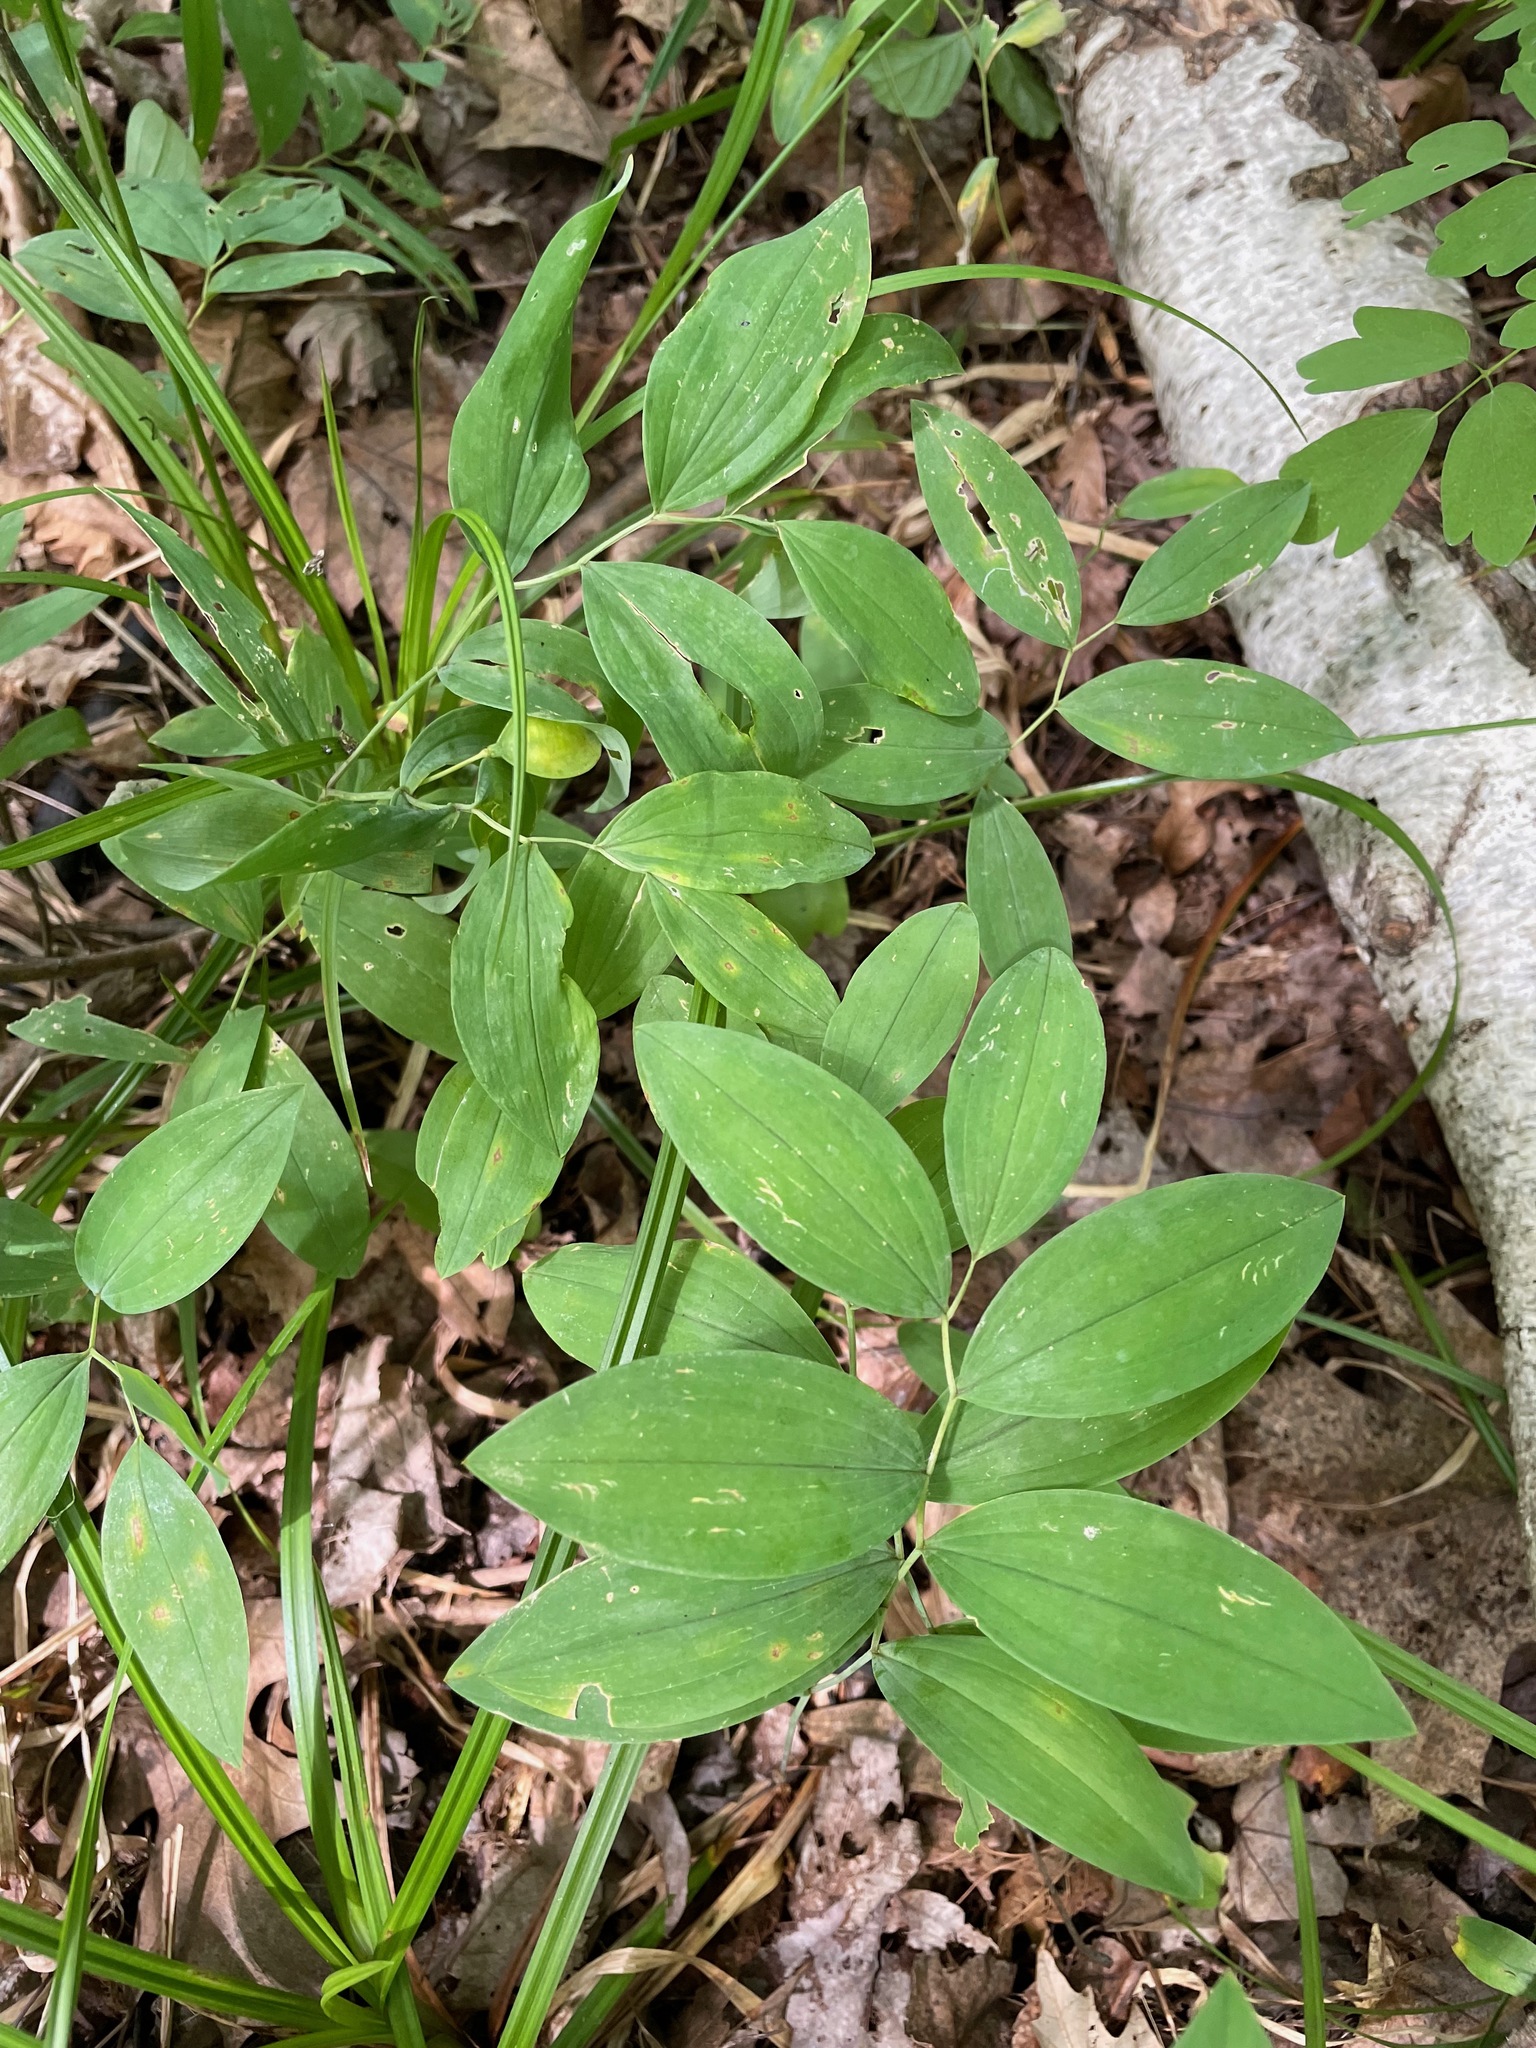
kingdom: Plantae
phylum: Tracheophyta
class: Liliopsida
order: Liliales
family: Colchicaceae
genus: Uvularia
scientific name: Uvularia sessilifolia
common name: Straw-lily
